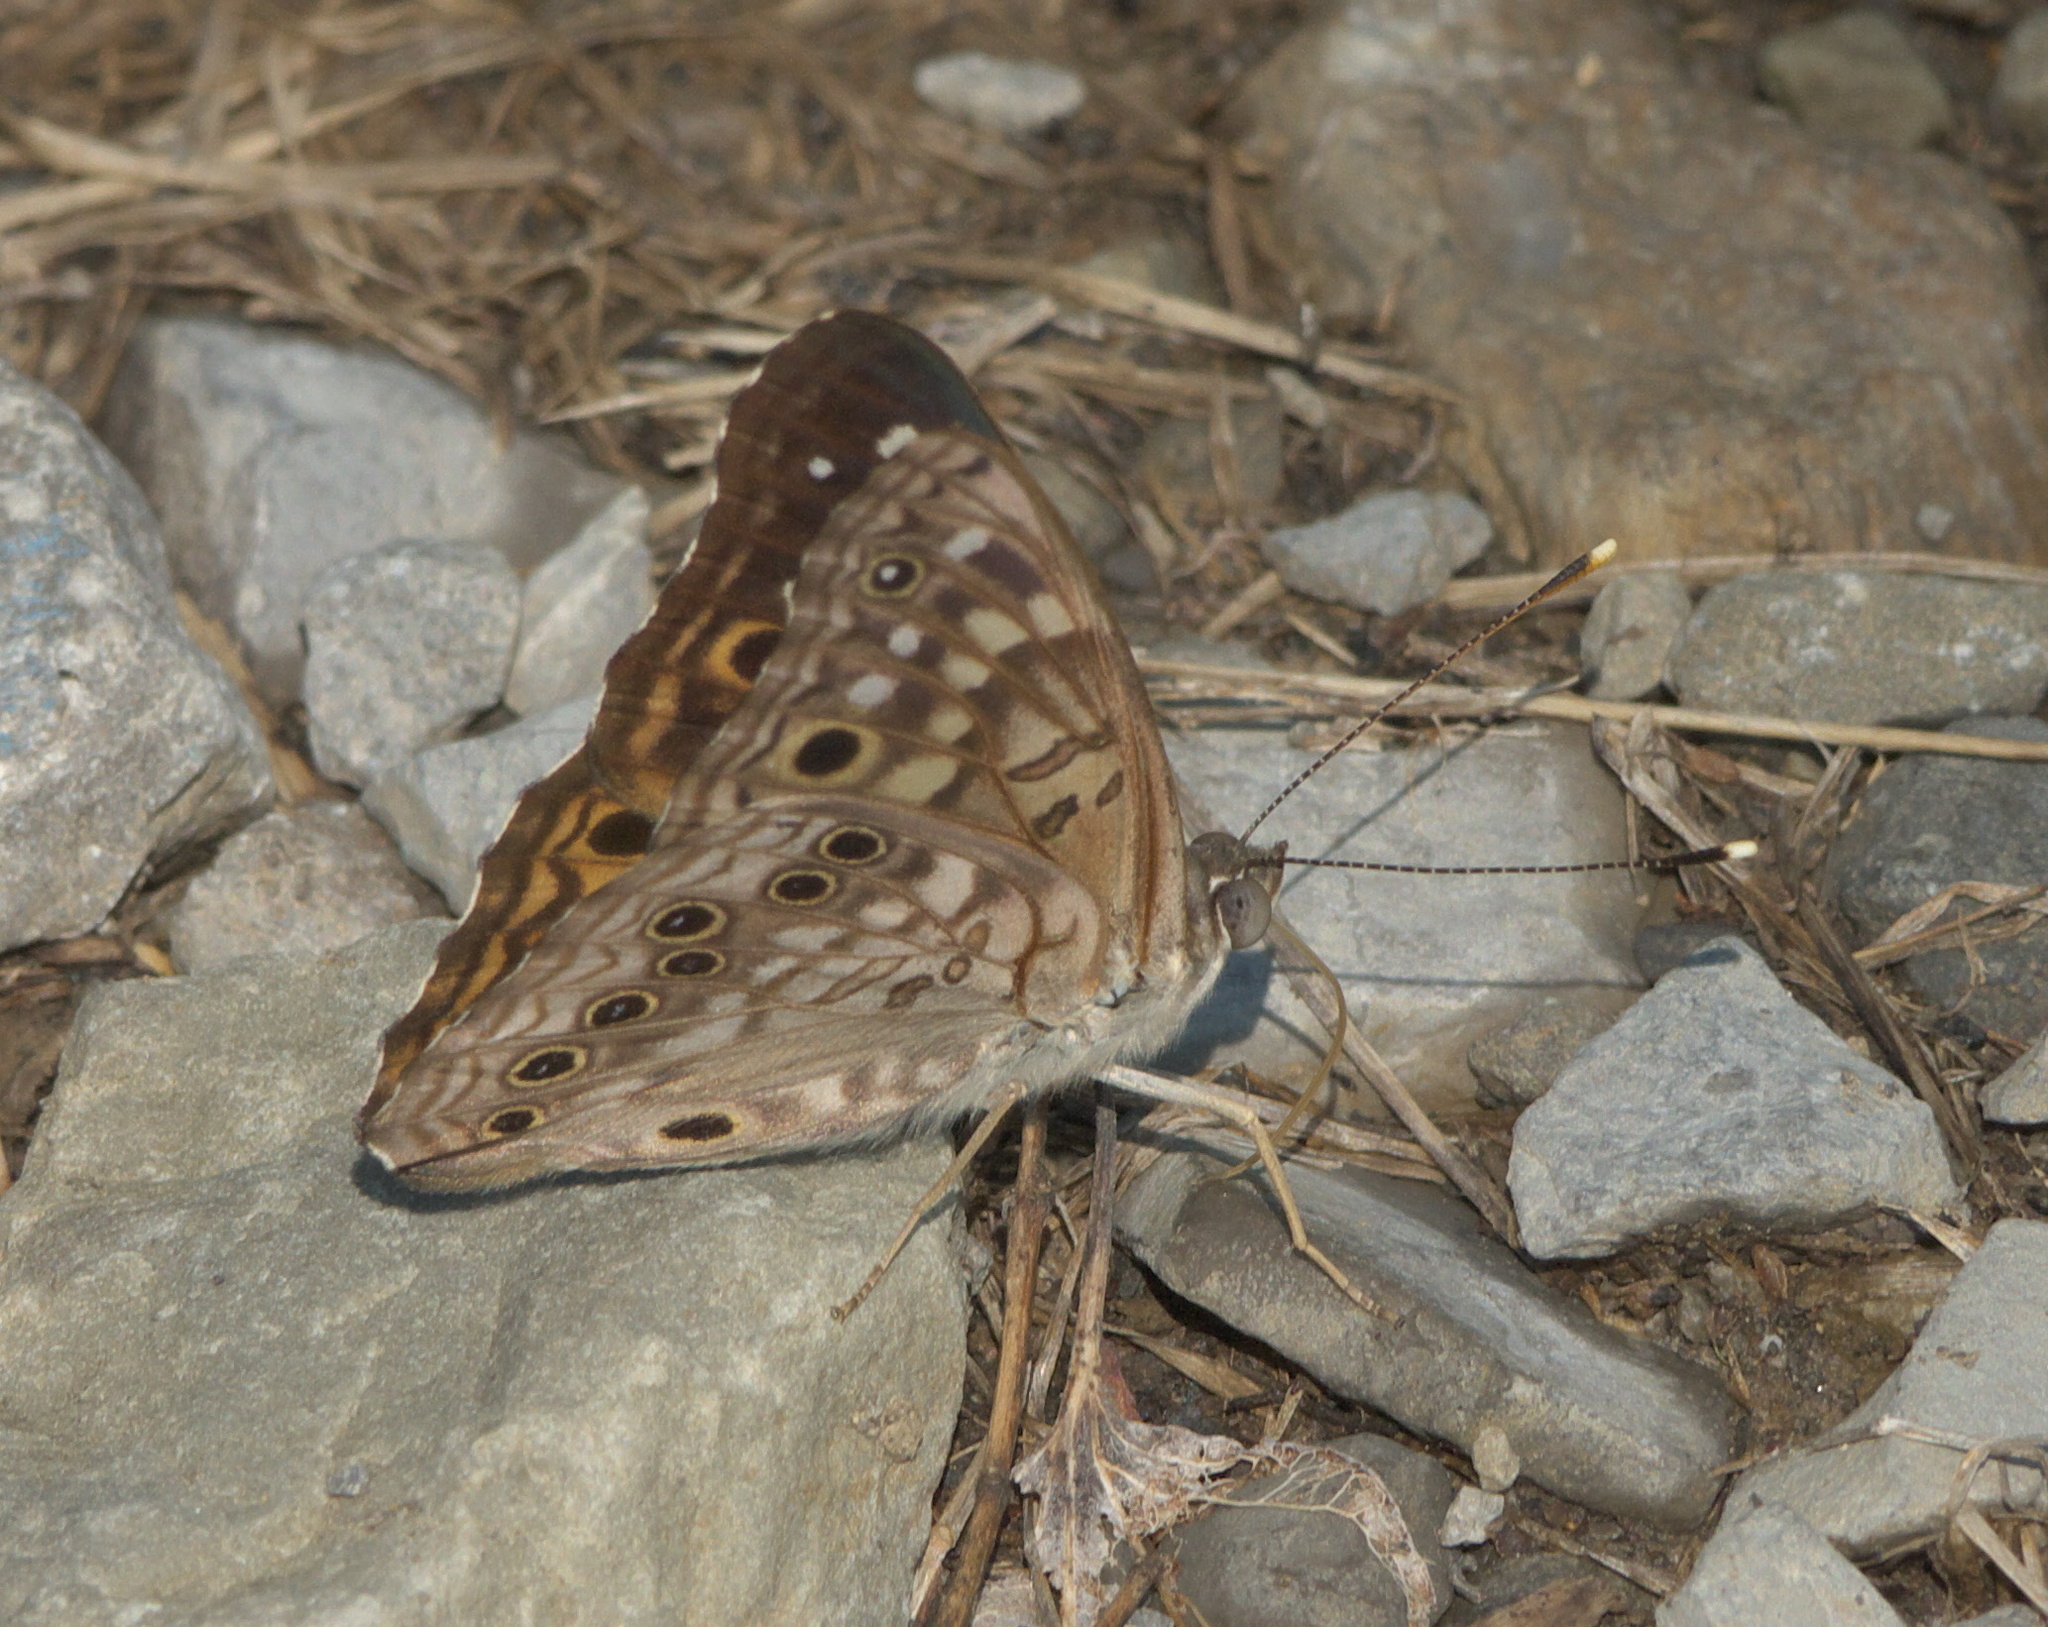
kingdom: Animalia
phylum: Arthropoda
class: Insecta
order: Lepidoptera
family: Nymphalidae
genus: Asterocampa
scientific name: Asterocampa celtis
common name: Hackberry emperor
